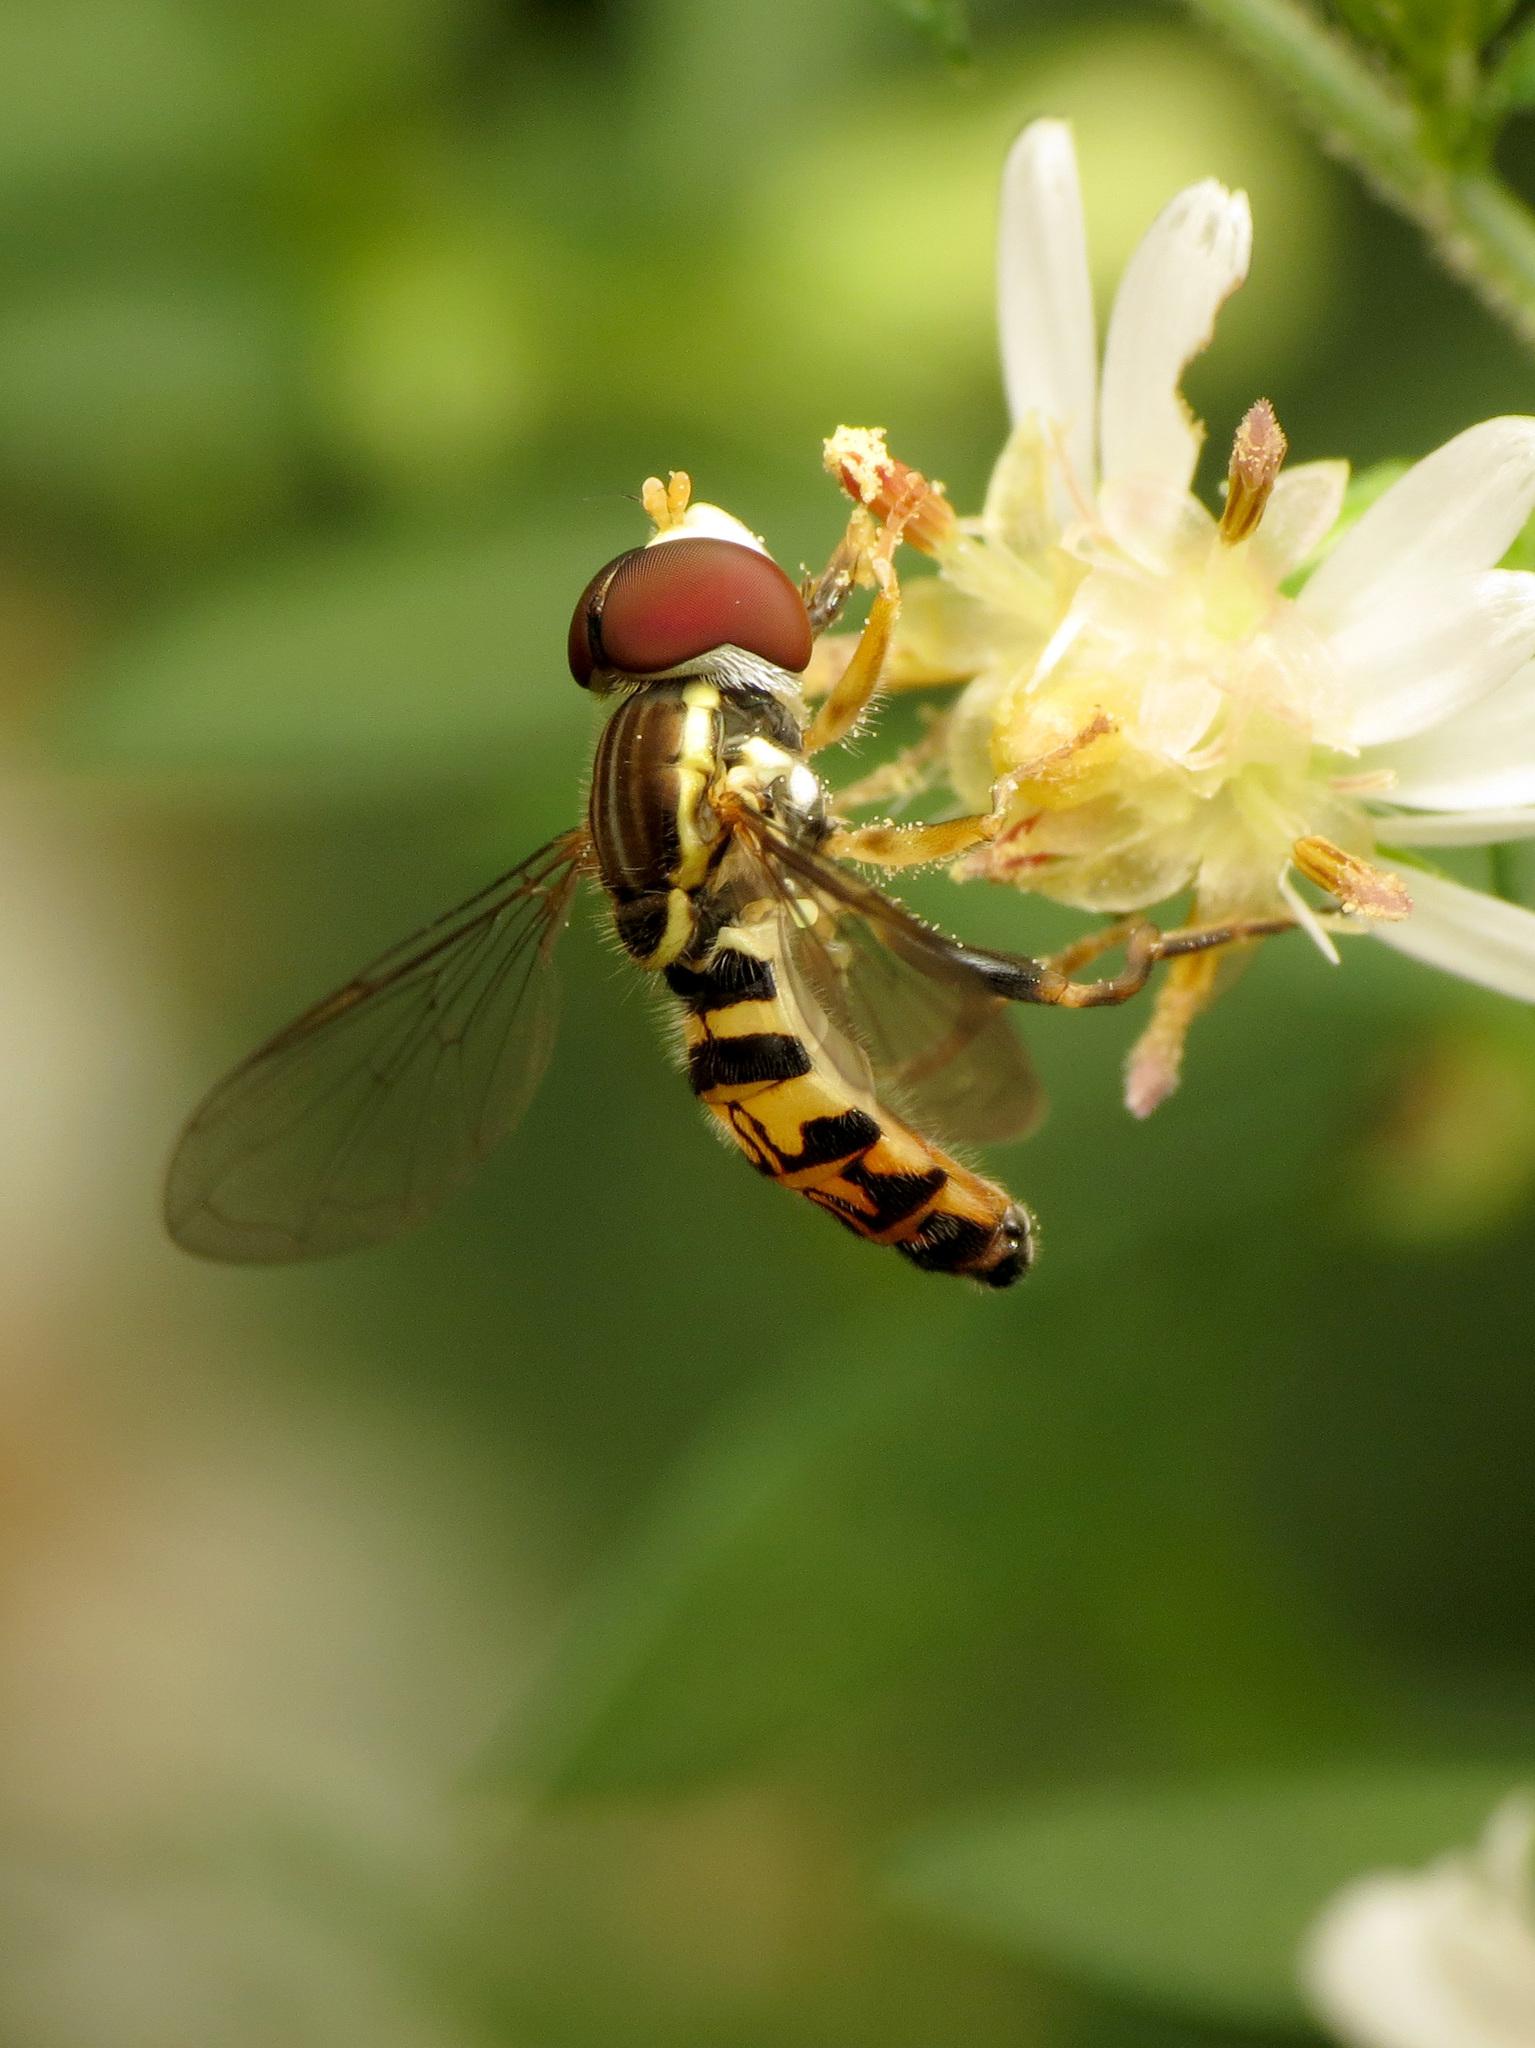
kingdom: Animalia
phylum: Arthropoda
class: Insecta
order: Diptera
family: Syrphidae
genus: Toxomerus
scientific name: Toxomerus geminatus
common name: Eastern calligrapher
